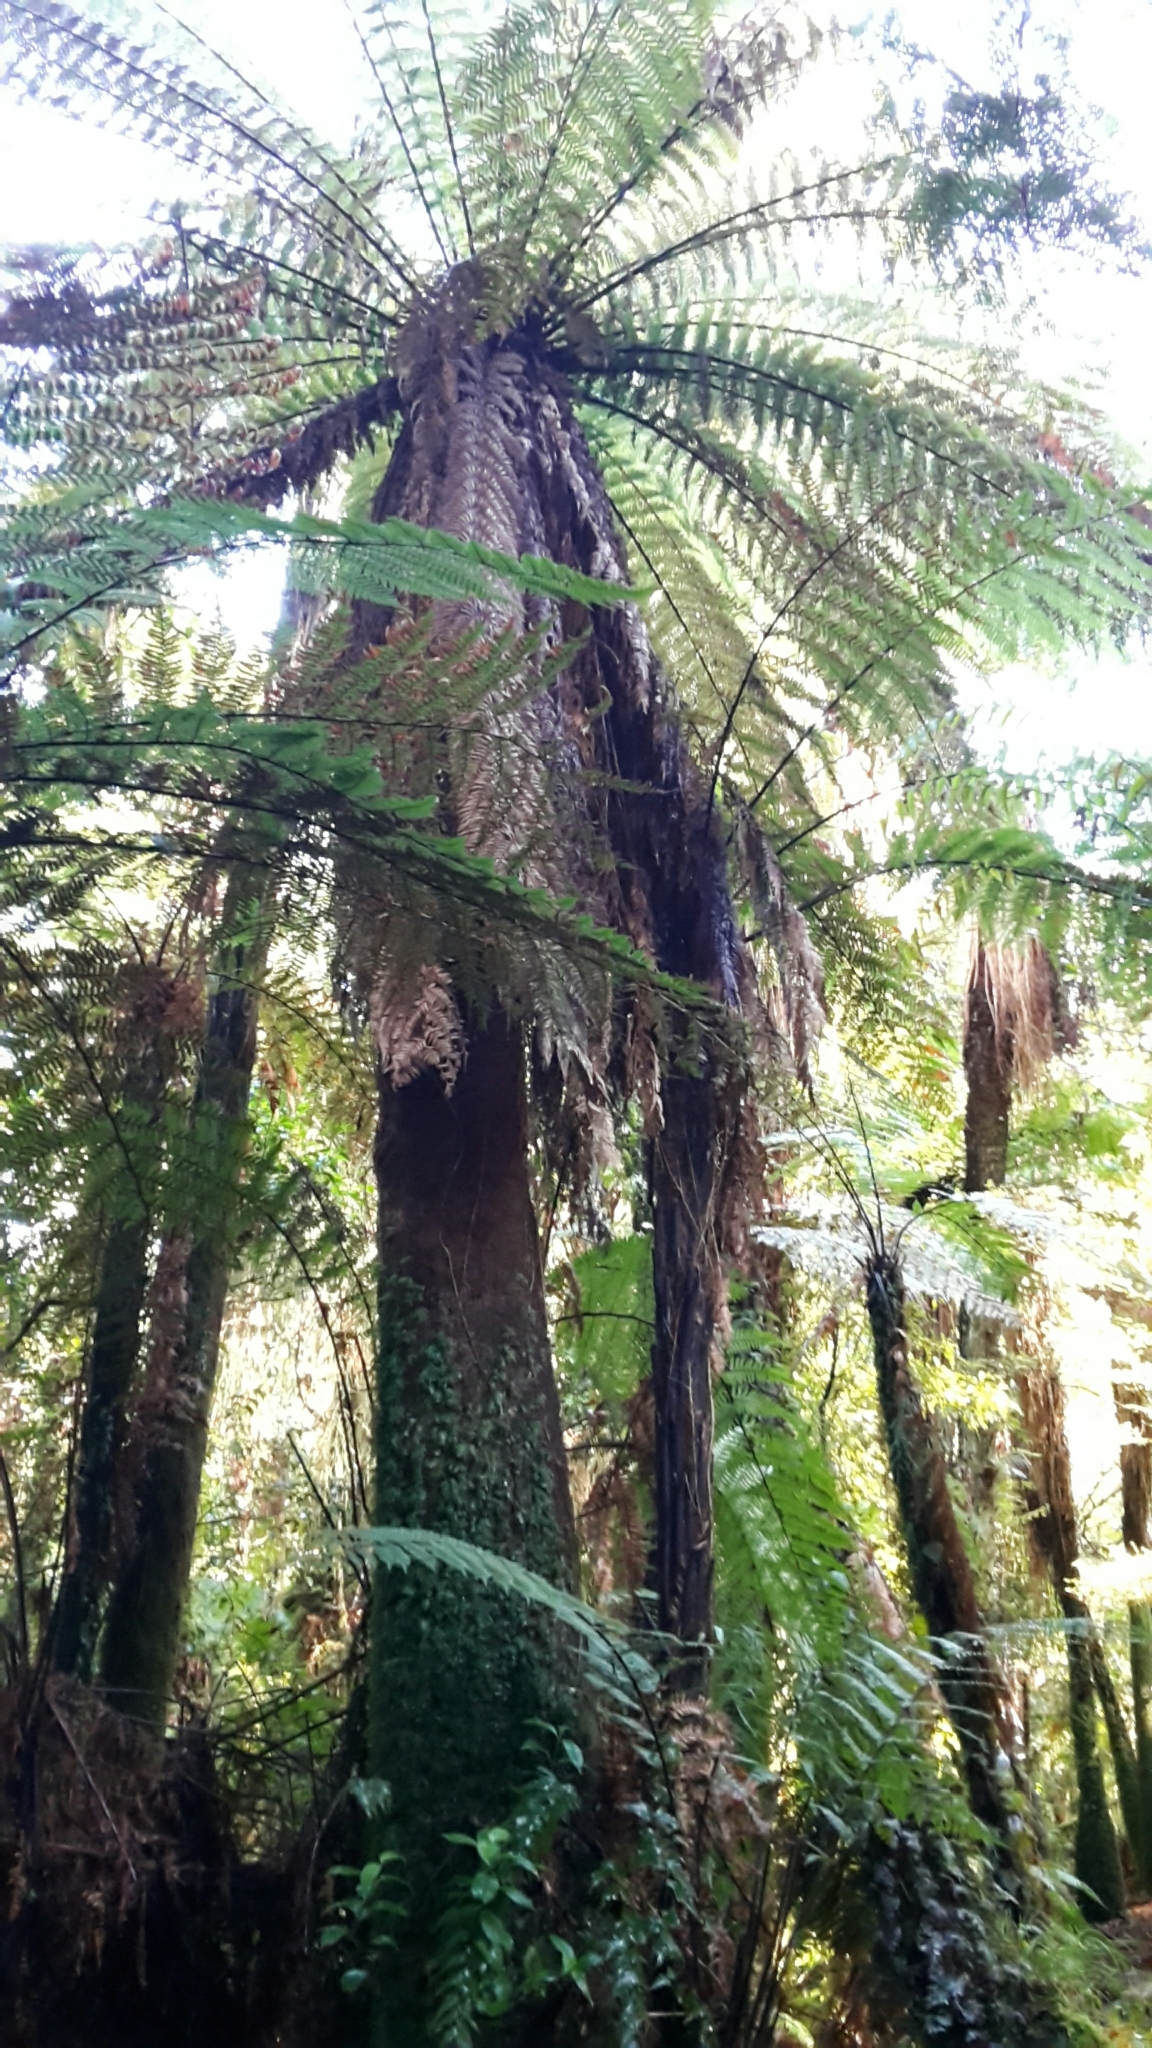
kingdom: Plantae
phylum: Tracheophyta
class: Polypodiopsida
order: Cyatheales
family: Dicksoniaceae
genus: Dicksonia
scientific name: Dicksonia fibrosa
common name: Golden tree fern
